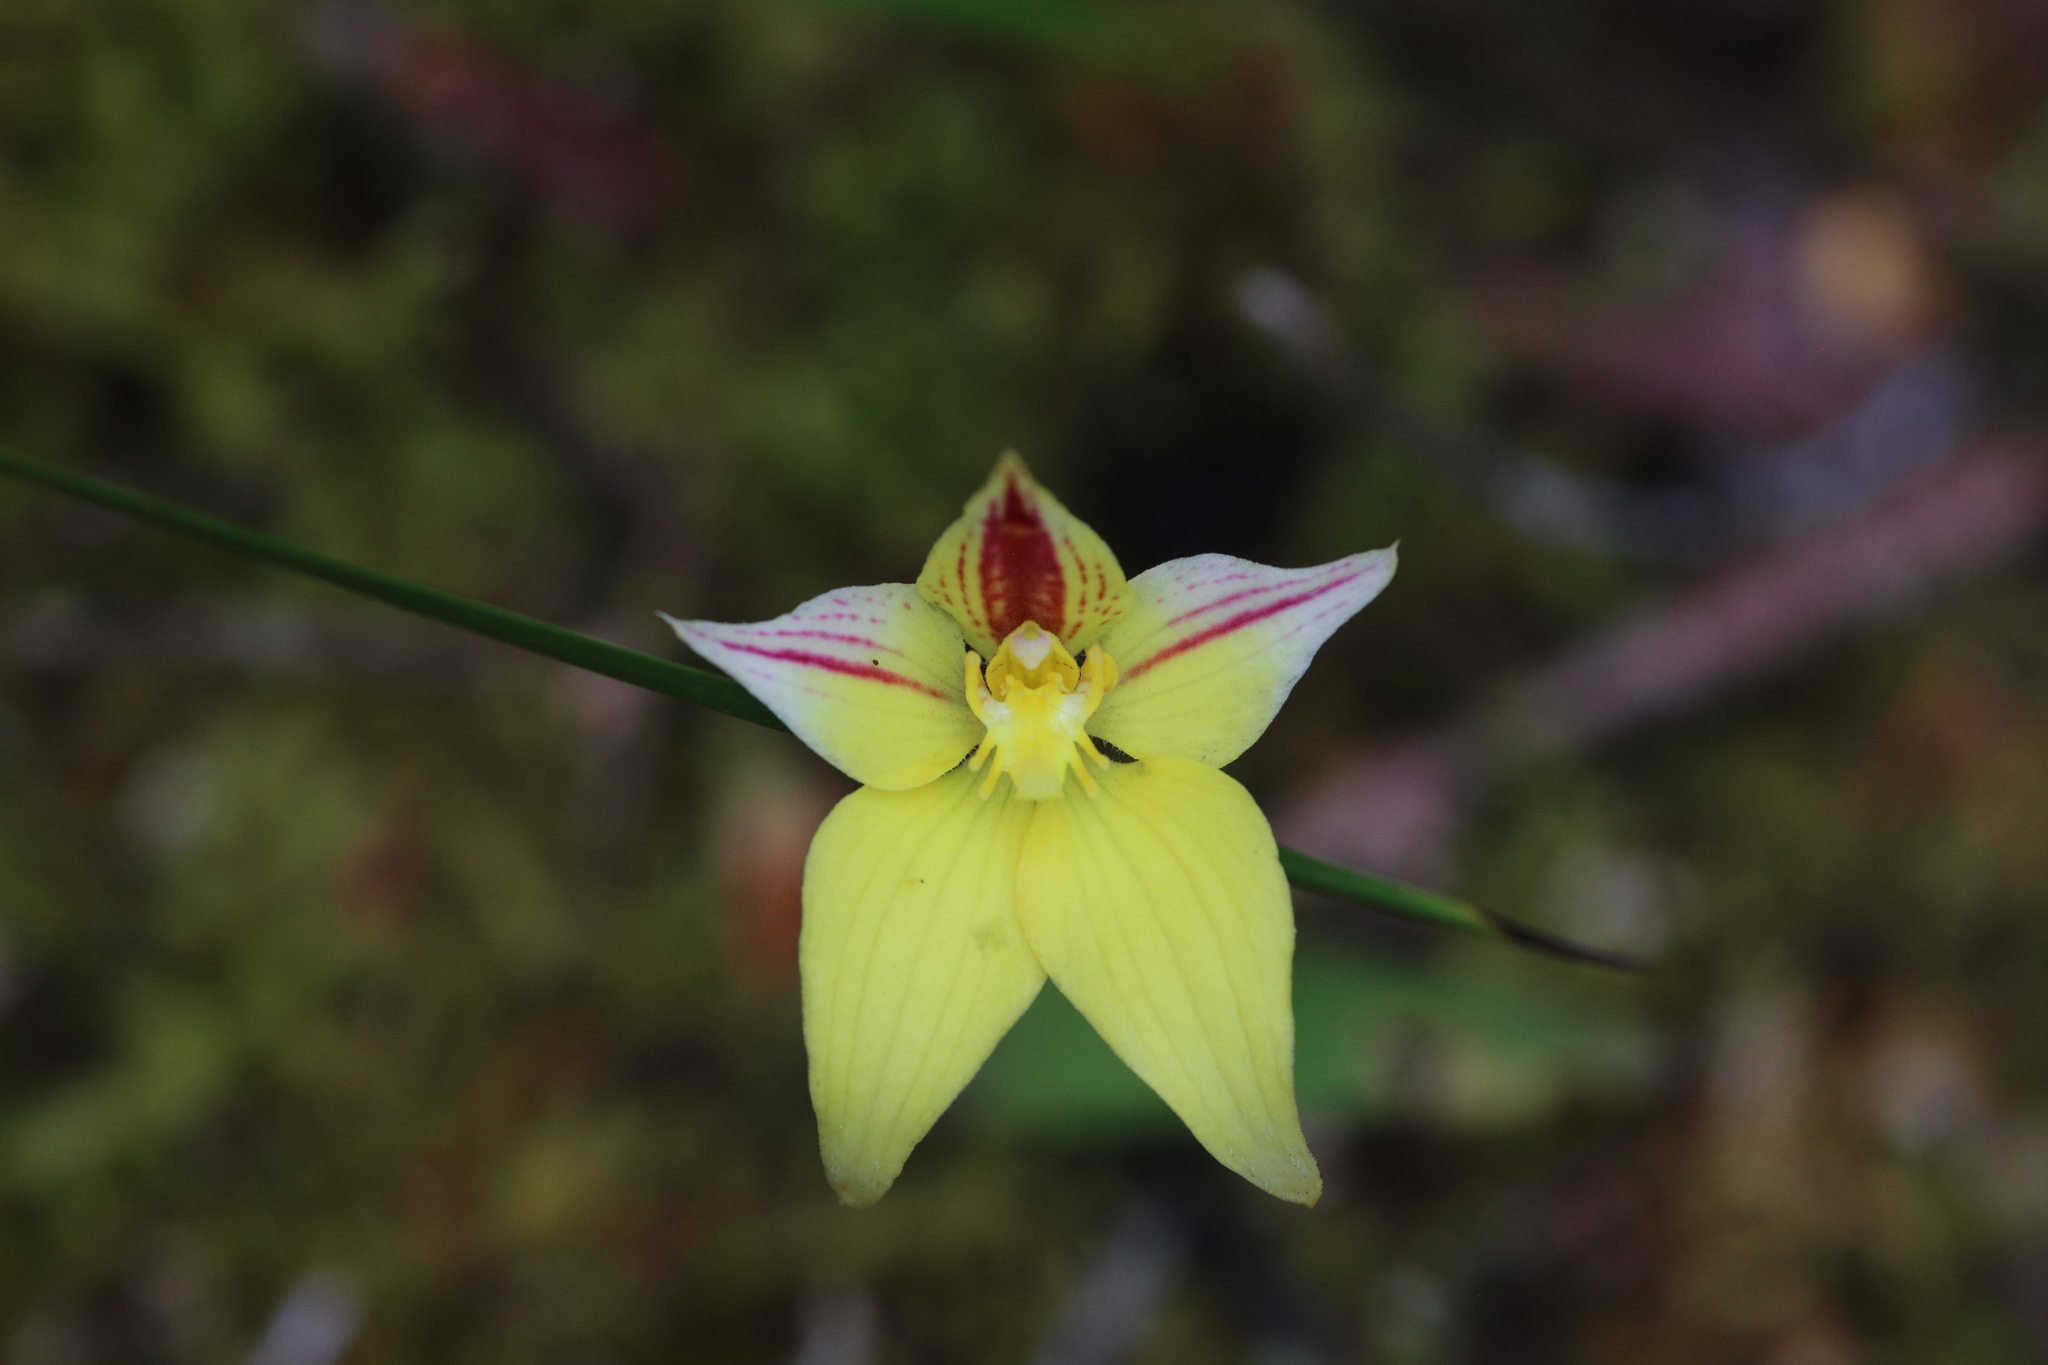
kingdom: Plantae
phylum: Tracheophyta
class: Liliopsida
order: Asparagales
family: Orchidaceae
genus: Caladenia
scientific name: Caladenia flava
